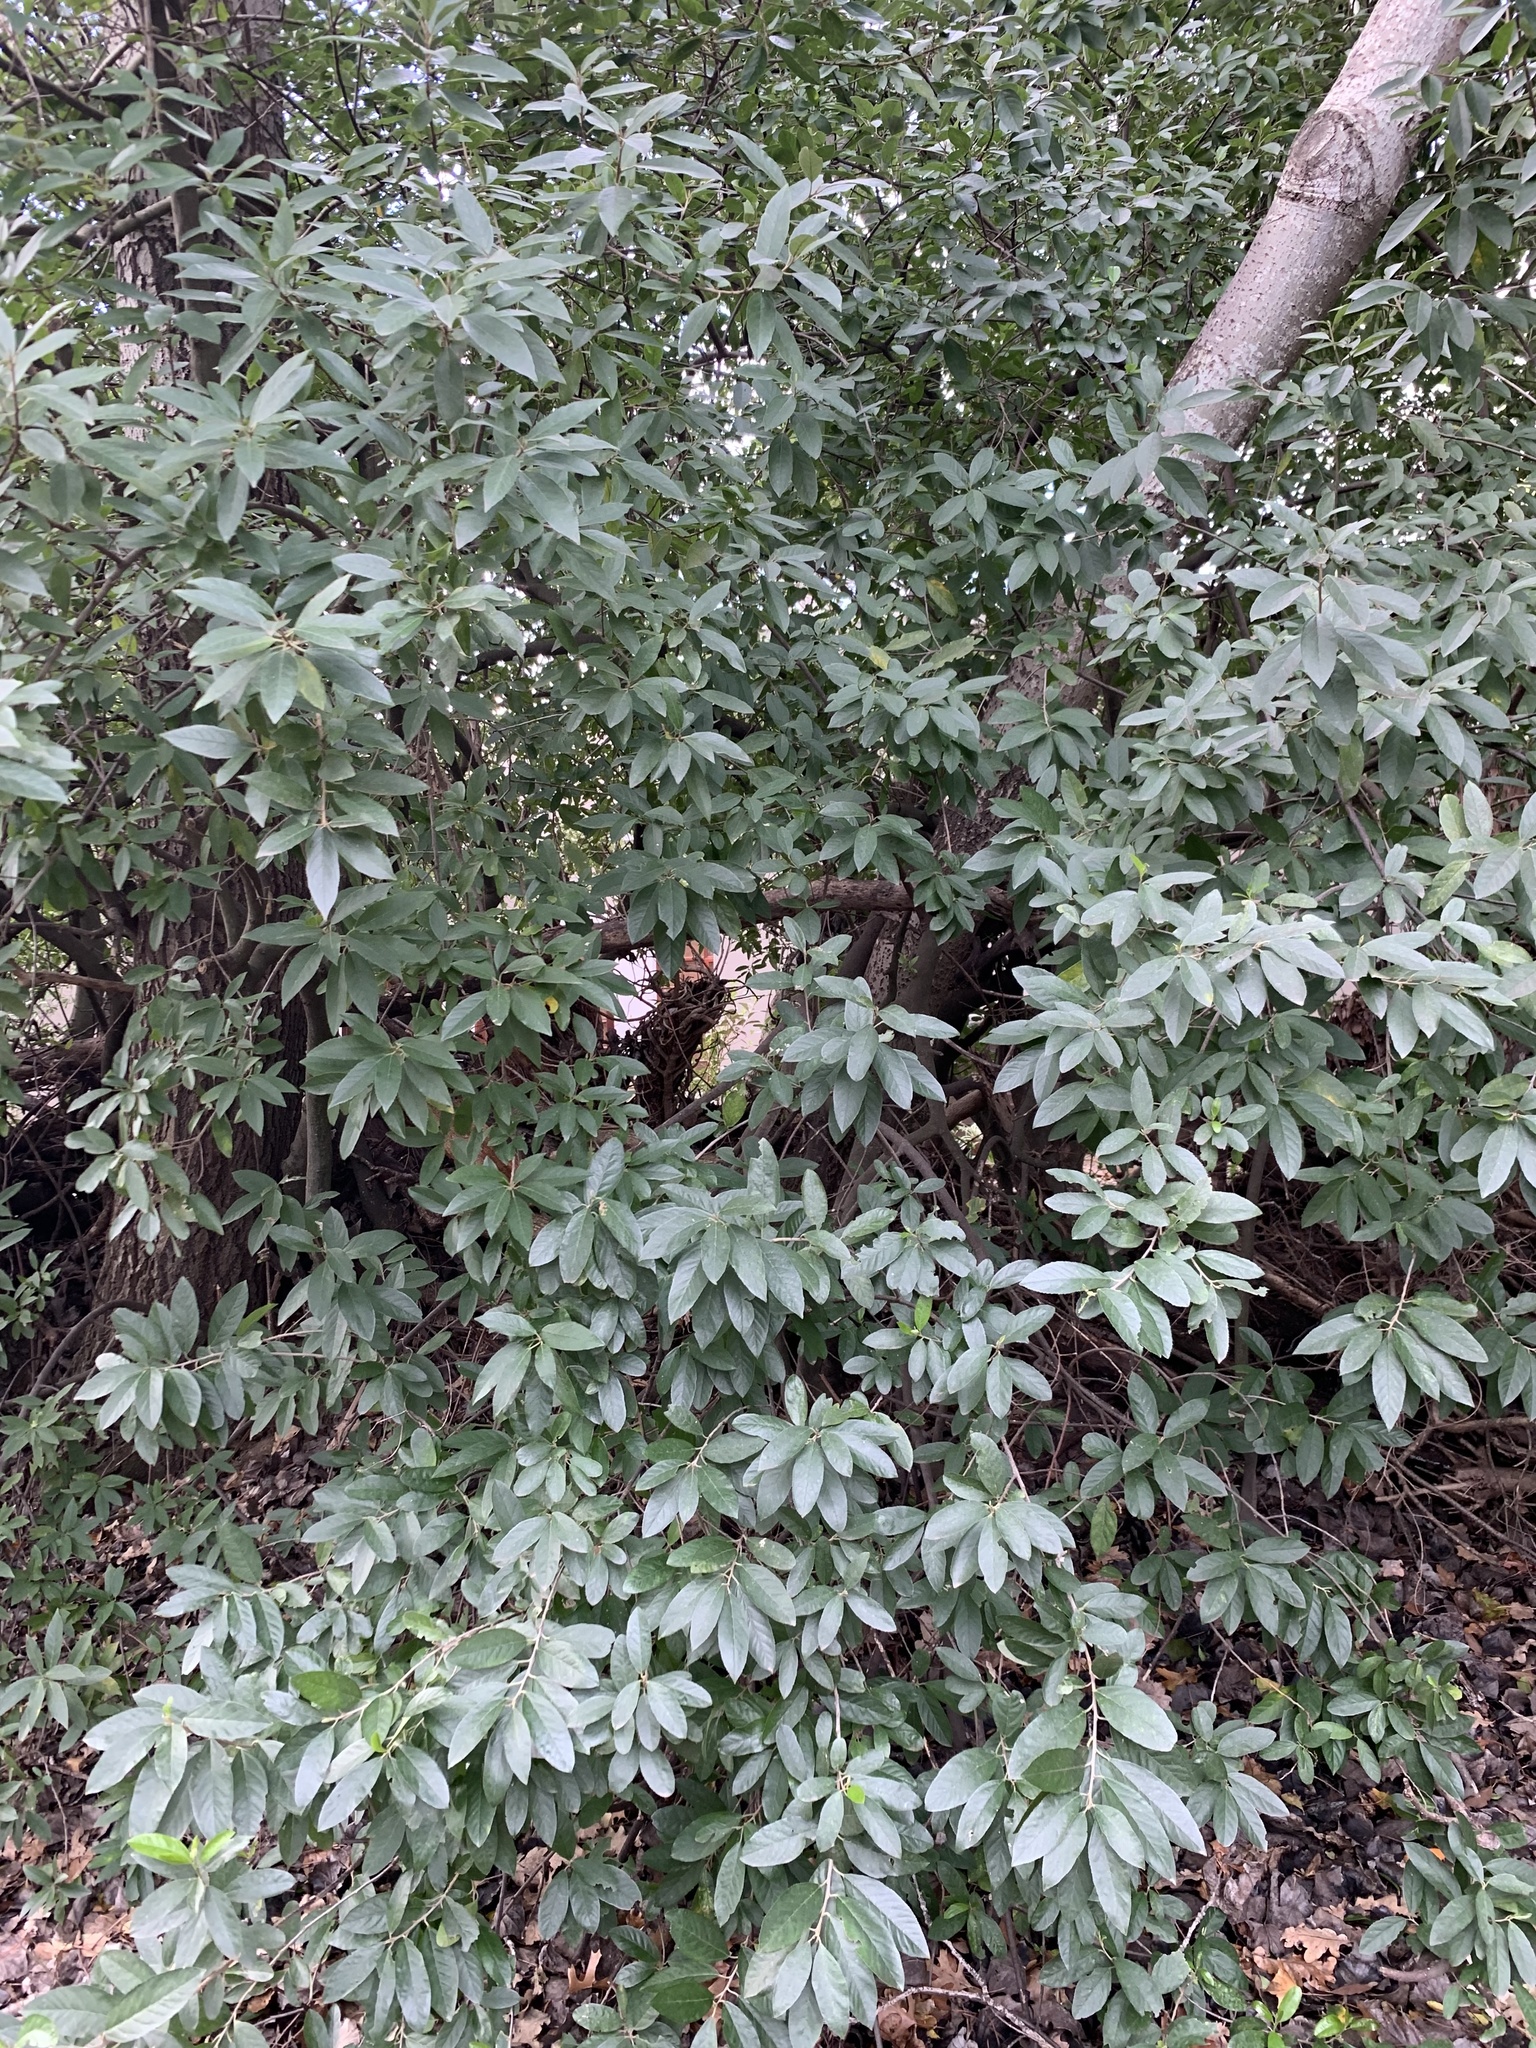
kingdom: Plantae
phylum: Tracheophyta
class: Magnoliopsida
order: Malpighiales
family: Achariaceae
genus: Kiggelaria
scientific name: Kiggelaria africana
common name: Wild peach
